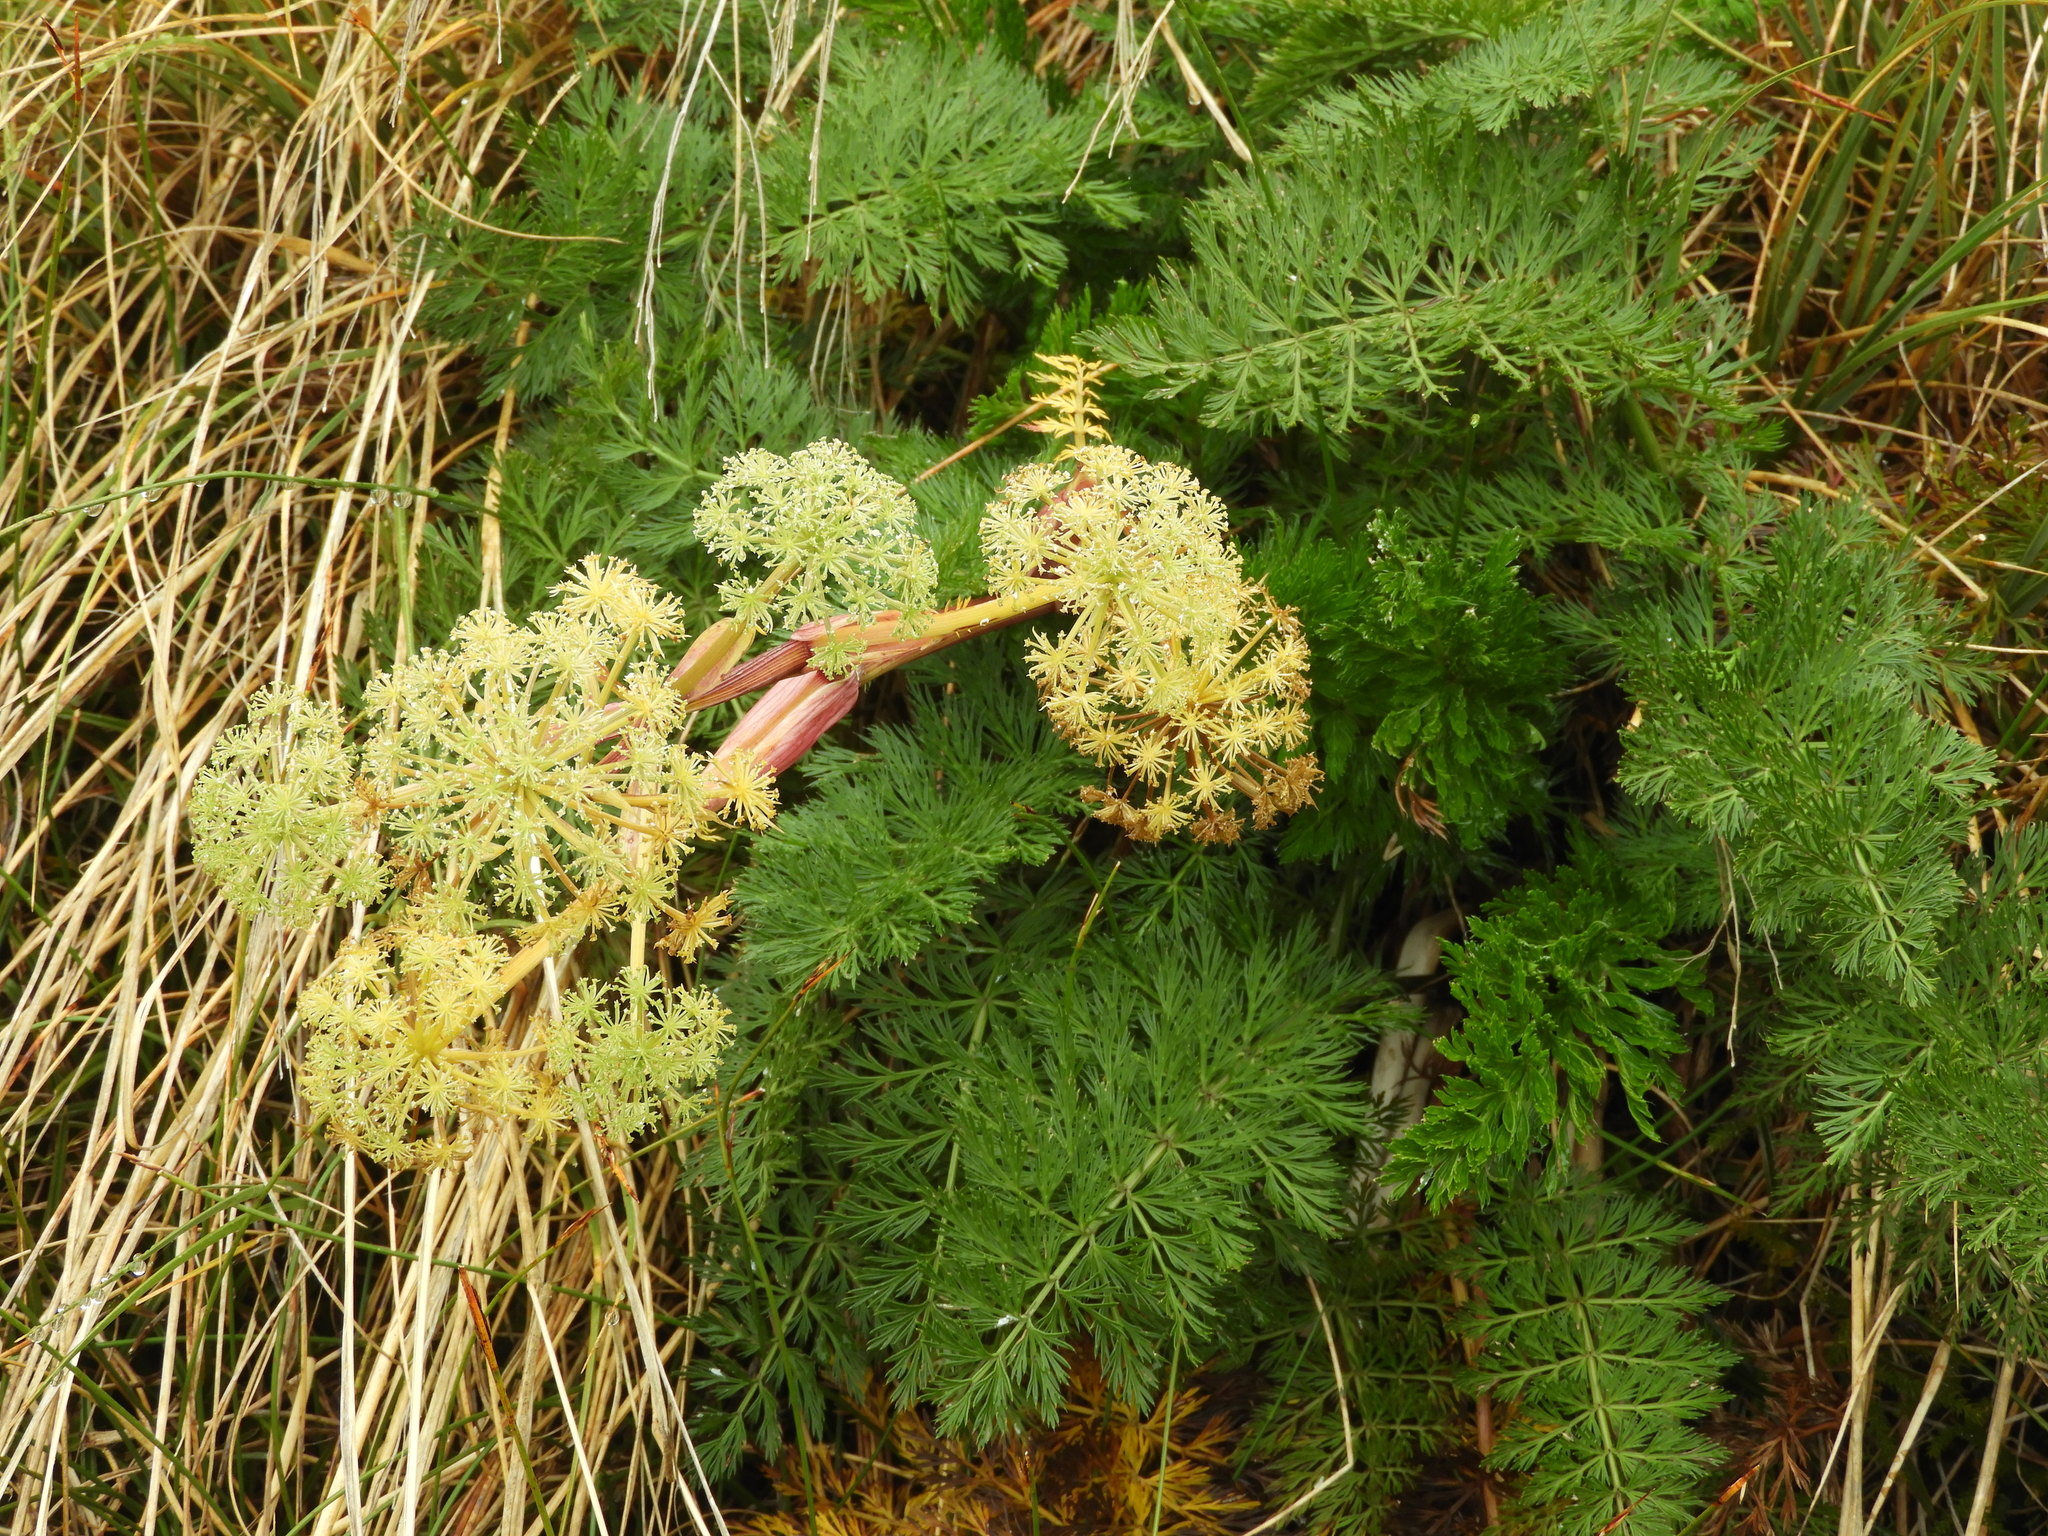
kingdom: Plantae
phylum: Tracheophyta
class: Magnoliopsida
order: Apiales
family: Apiaceae
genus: Anisotome
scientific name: Anisotome haastii
